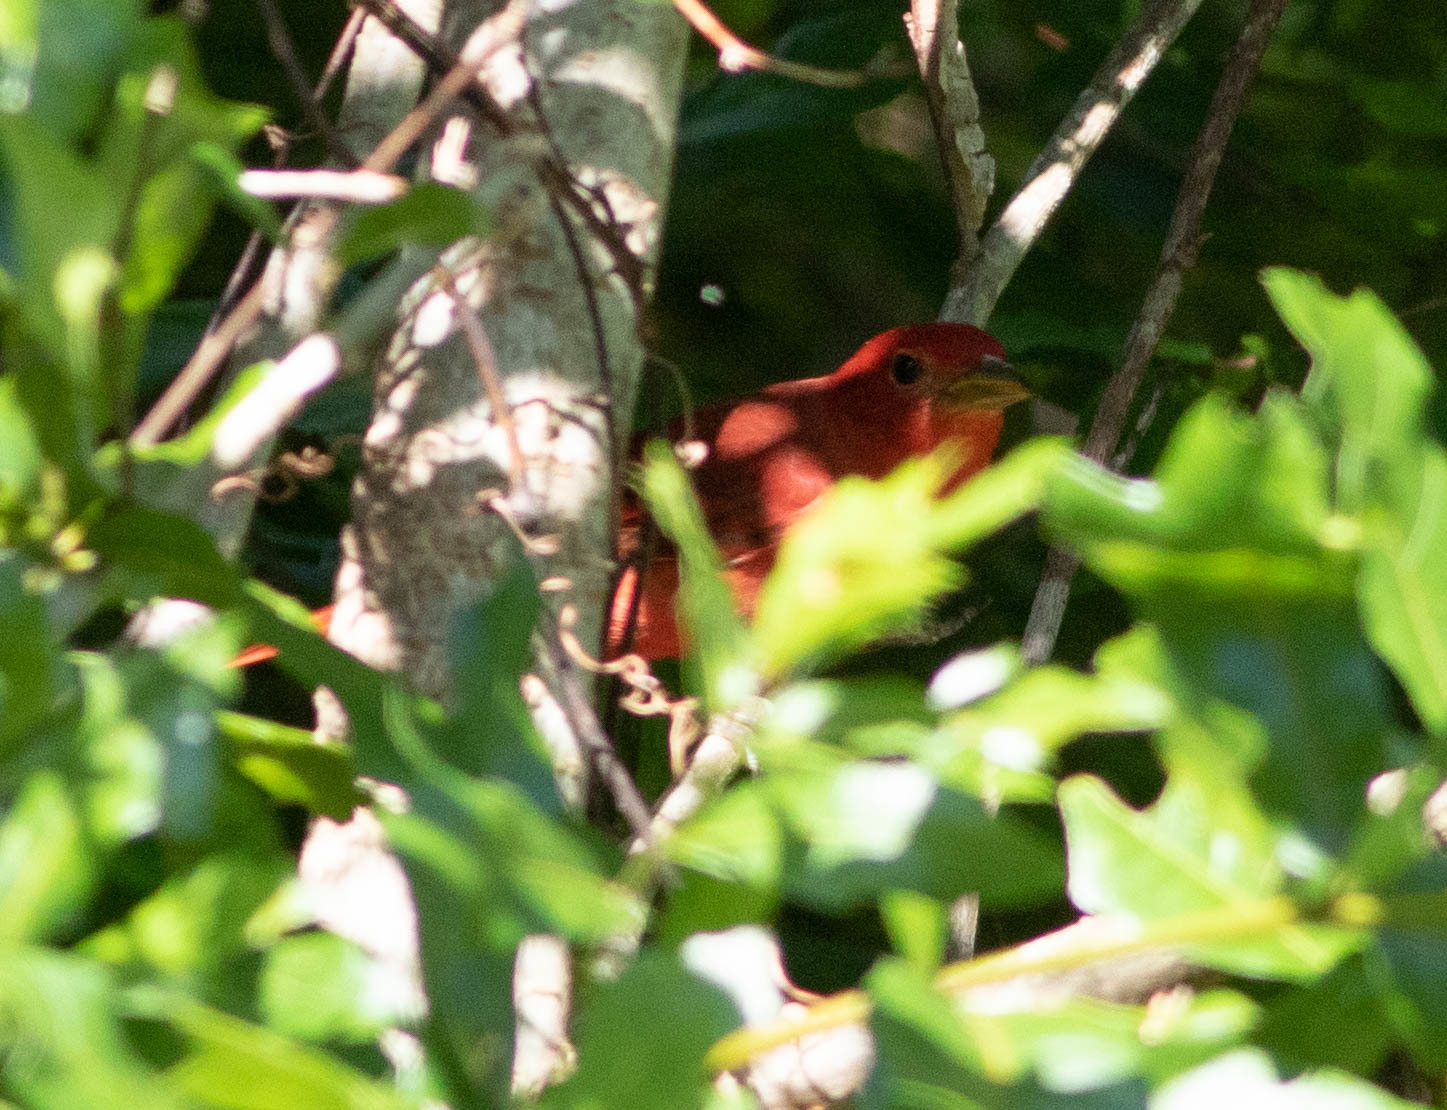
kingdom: Animalia
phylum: Chordata
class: Aves
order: Passeriformes
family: Cardinalidae
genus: Piranga
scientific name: Piranga rubra
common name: Summer tanager
